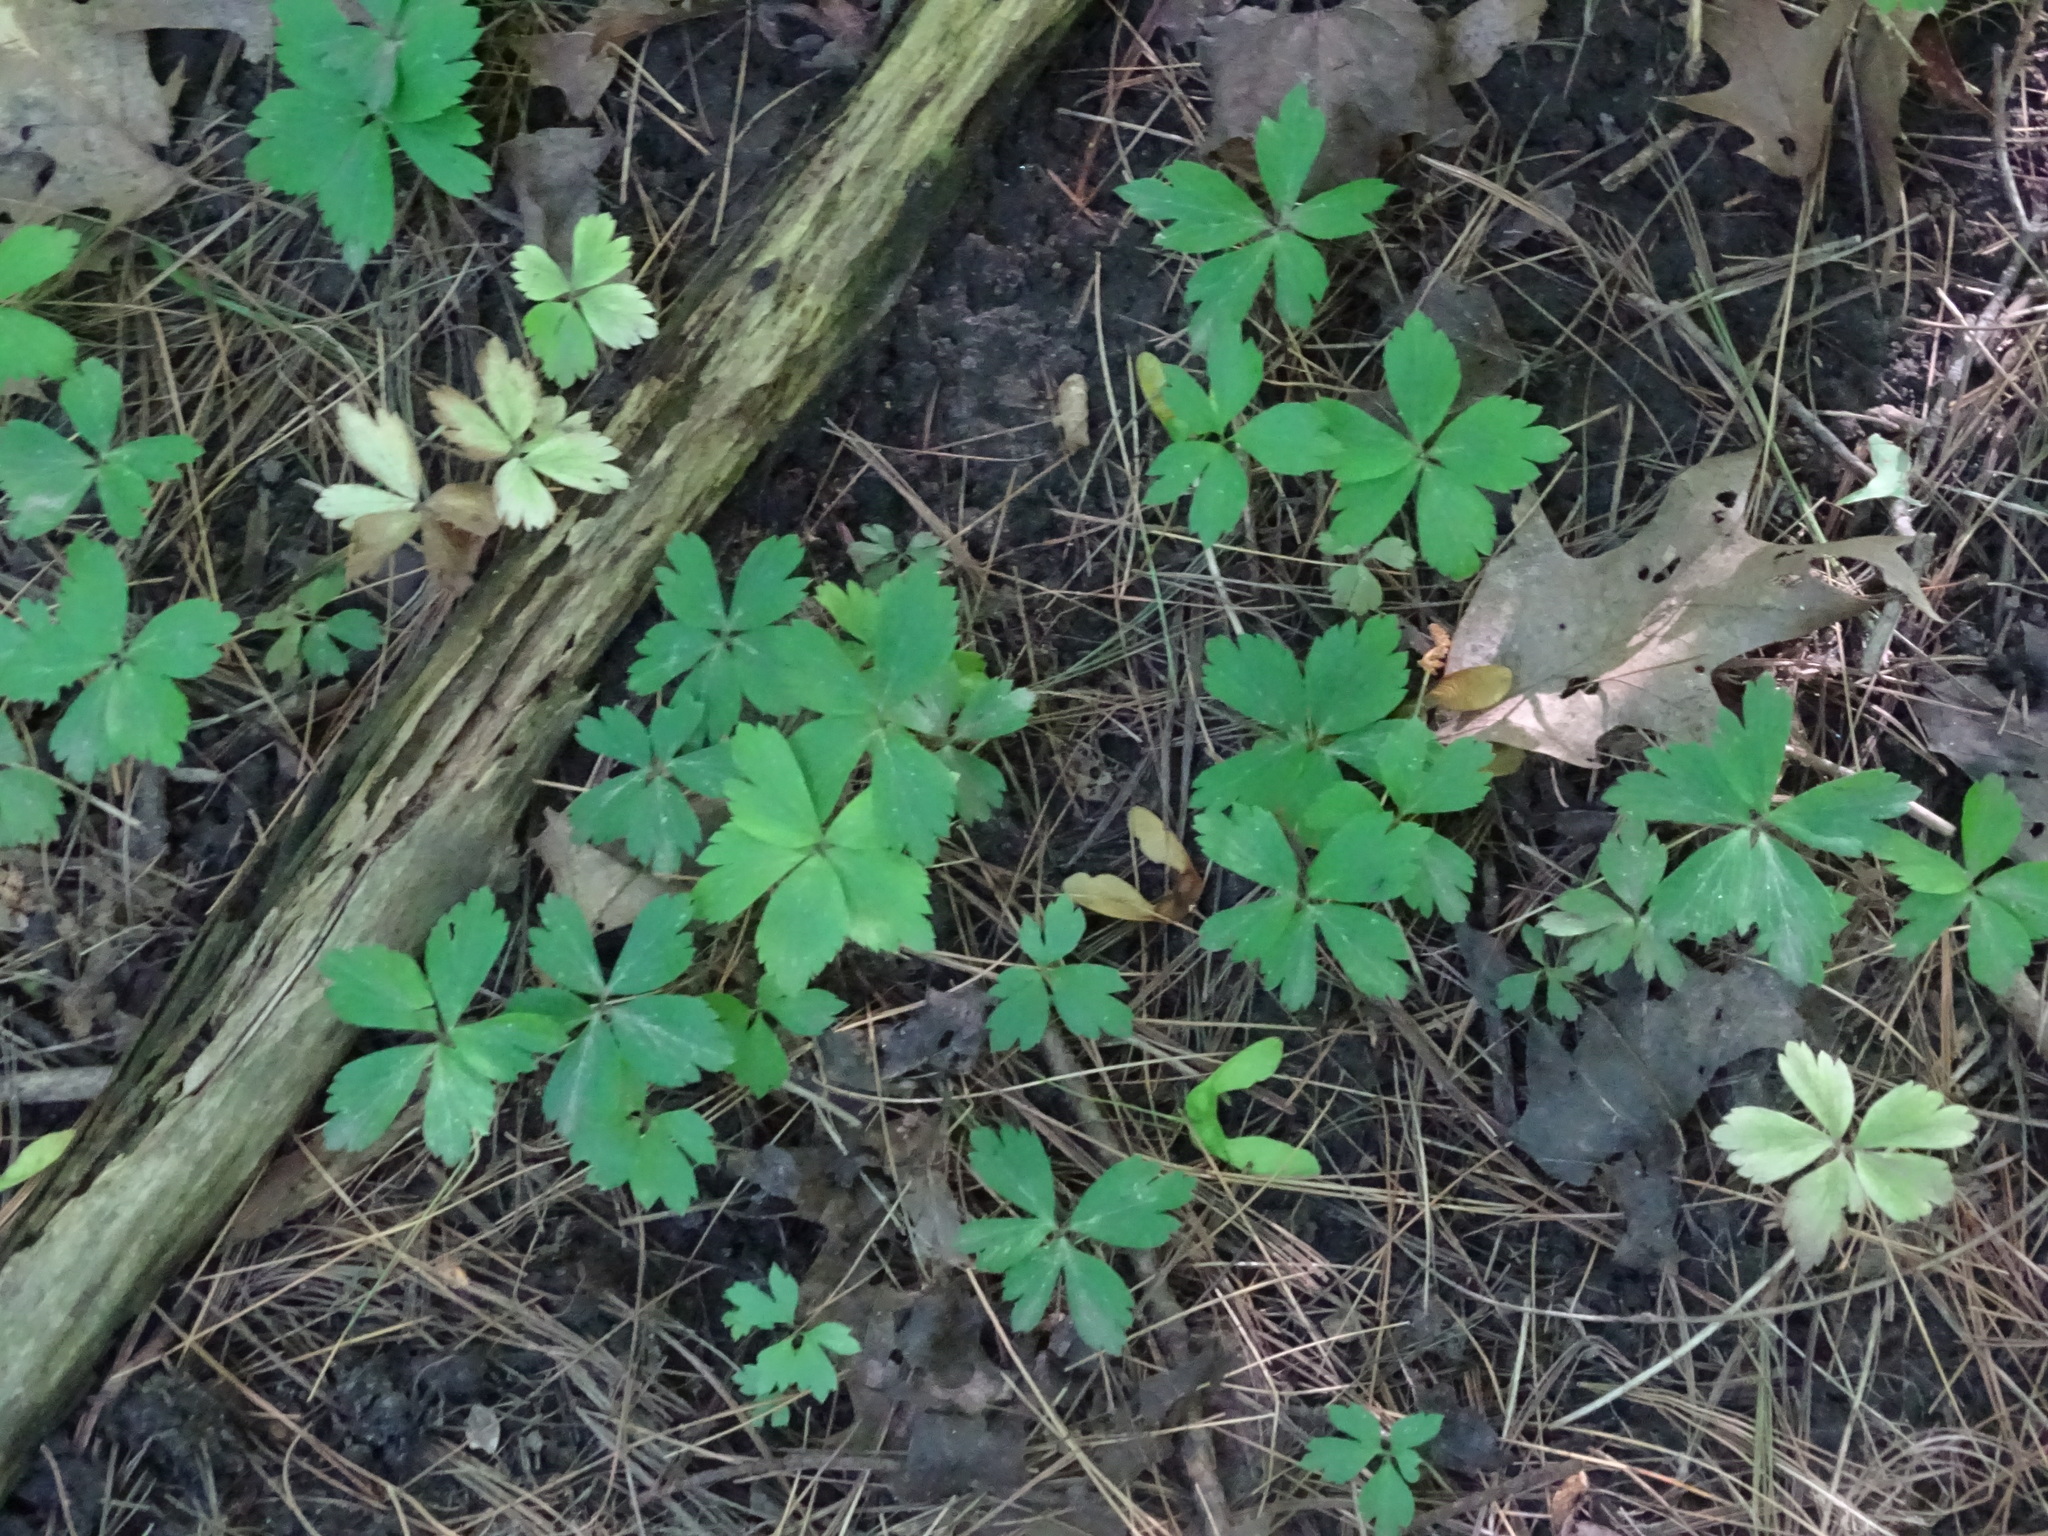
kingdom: Plantae
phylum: Tracheophyta
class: Magnoliopsida
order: Ranunculales
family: Ranunculaceae
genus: Anemone
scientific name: Anemone quinquefolia
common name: Wood anemone
